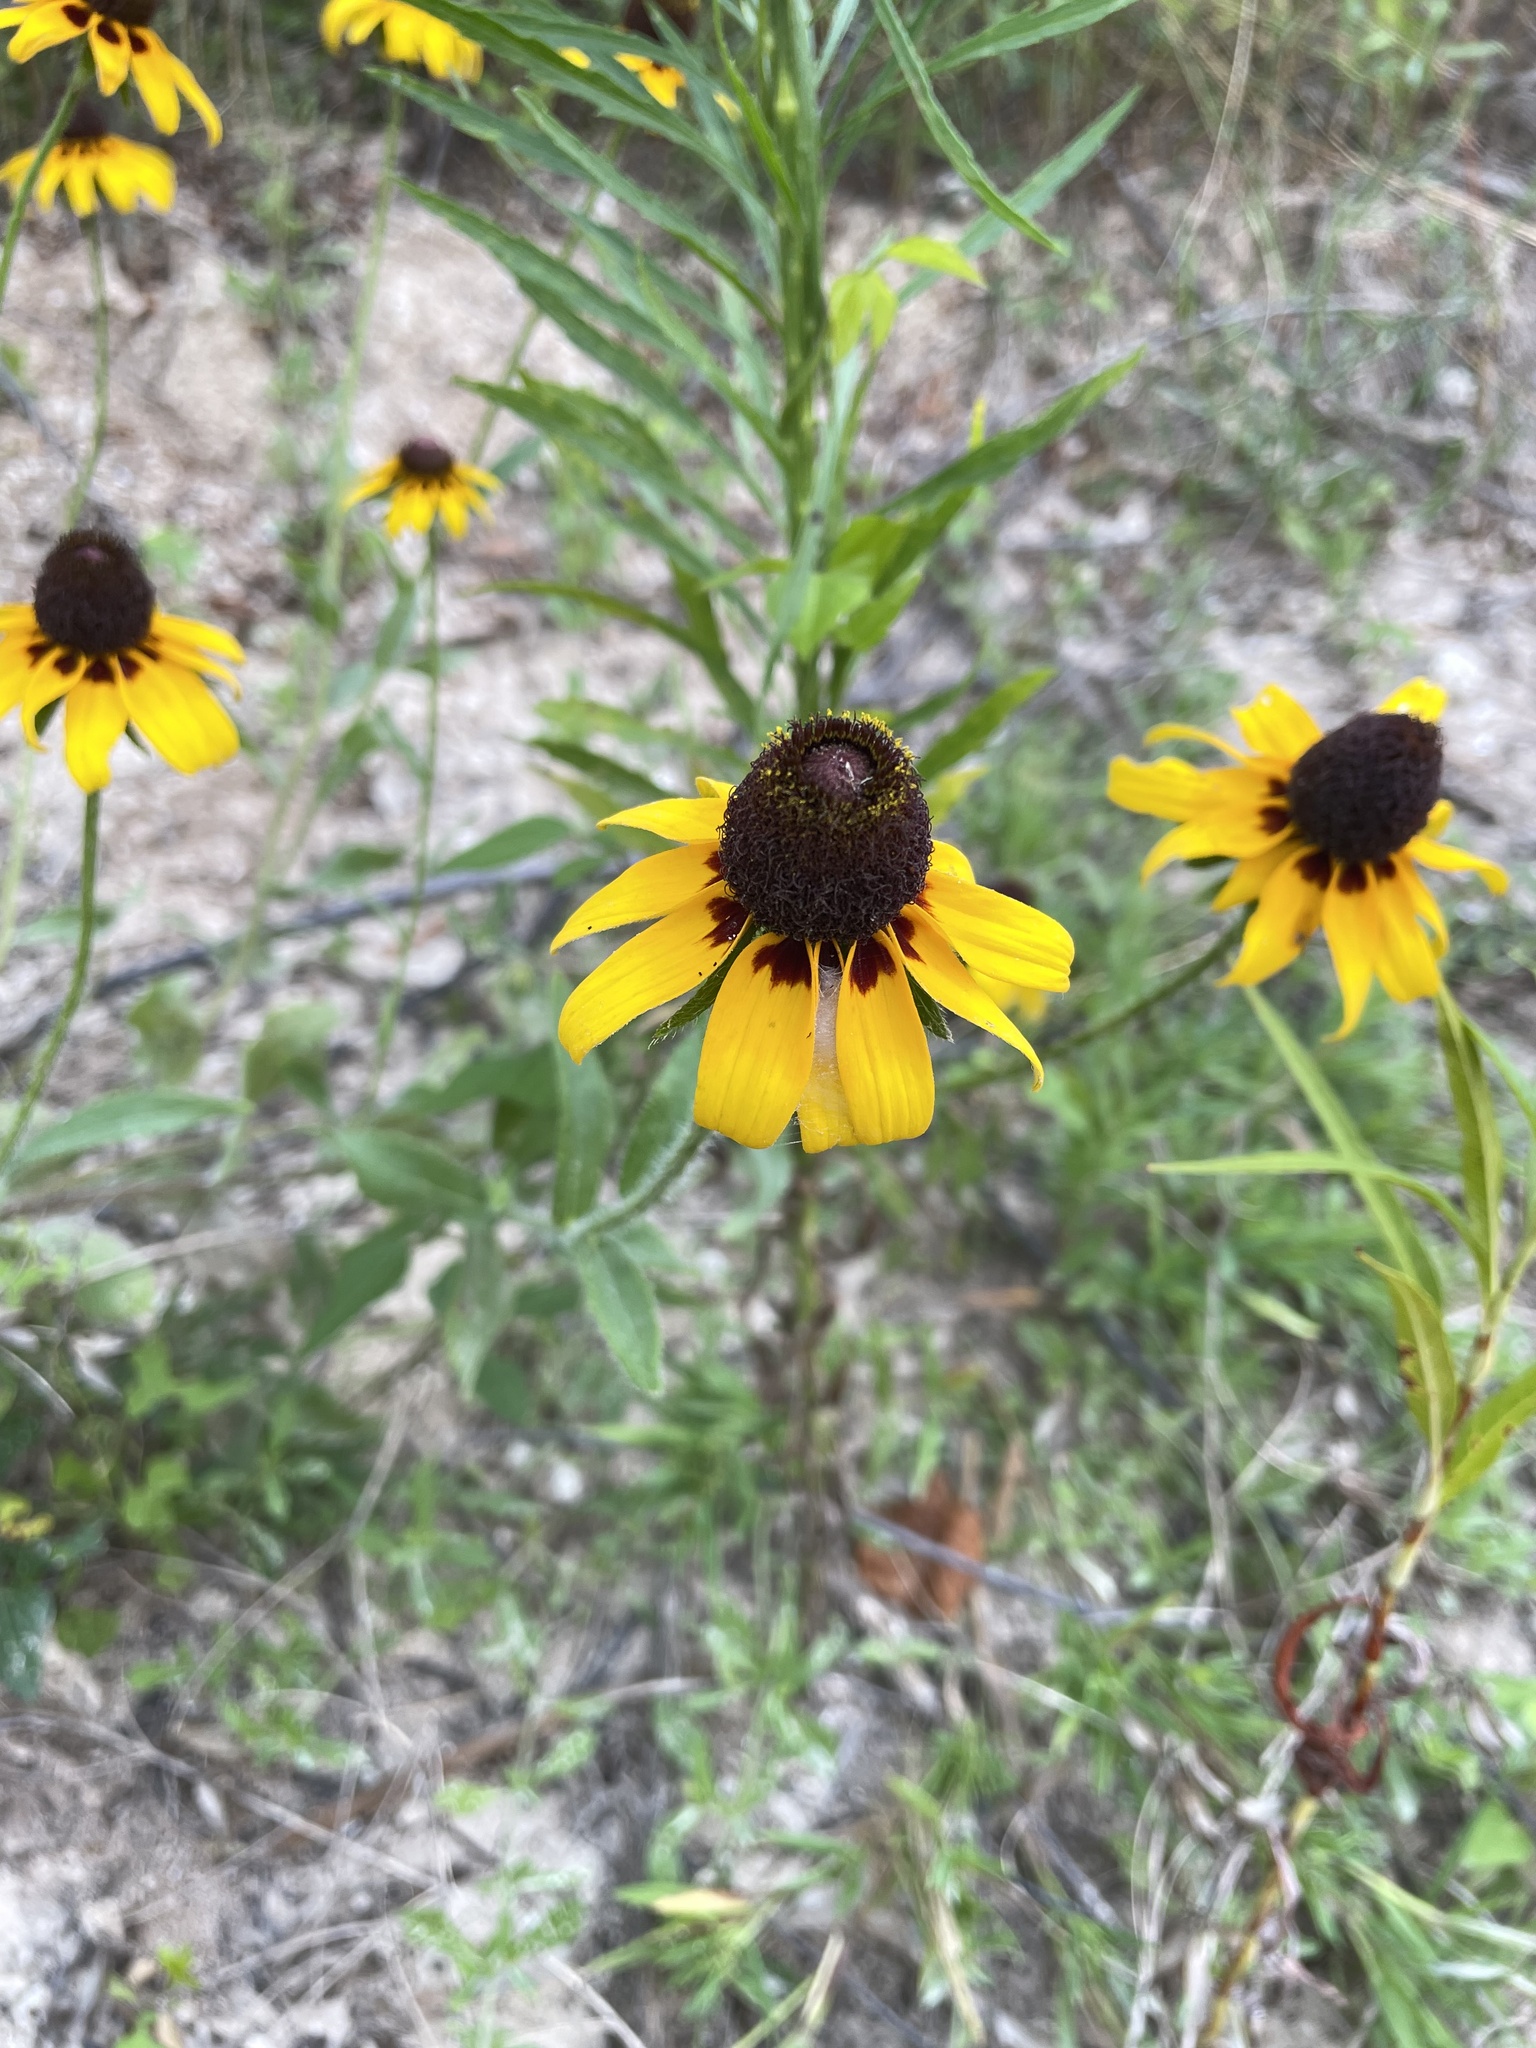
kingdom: Plantae
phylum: Tracheophyta
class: Magnoliopsida
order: Asterales
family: Asteraceae
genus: Rudbeckia
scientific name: Rudbeckia hirta
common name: Black-eyed-susan
